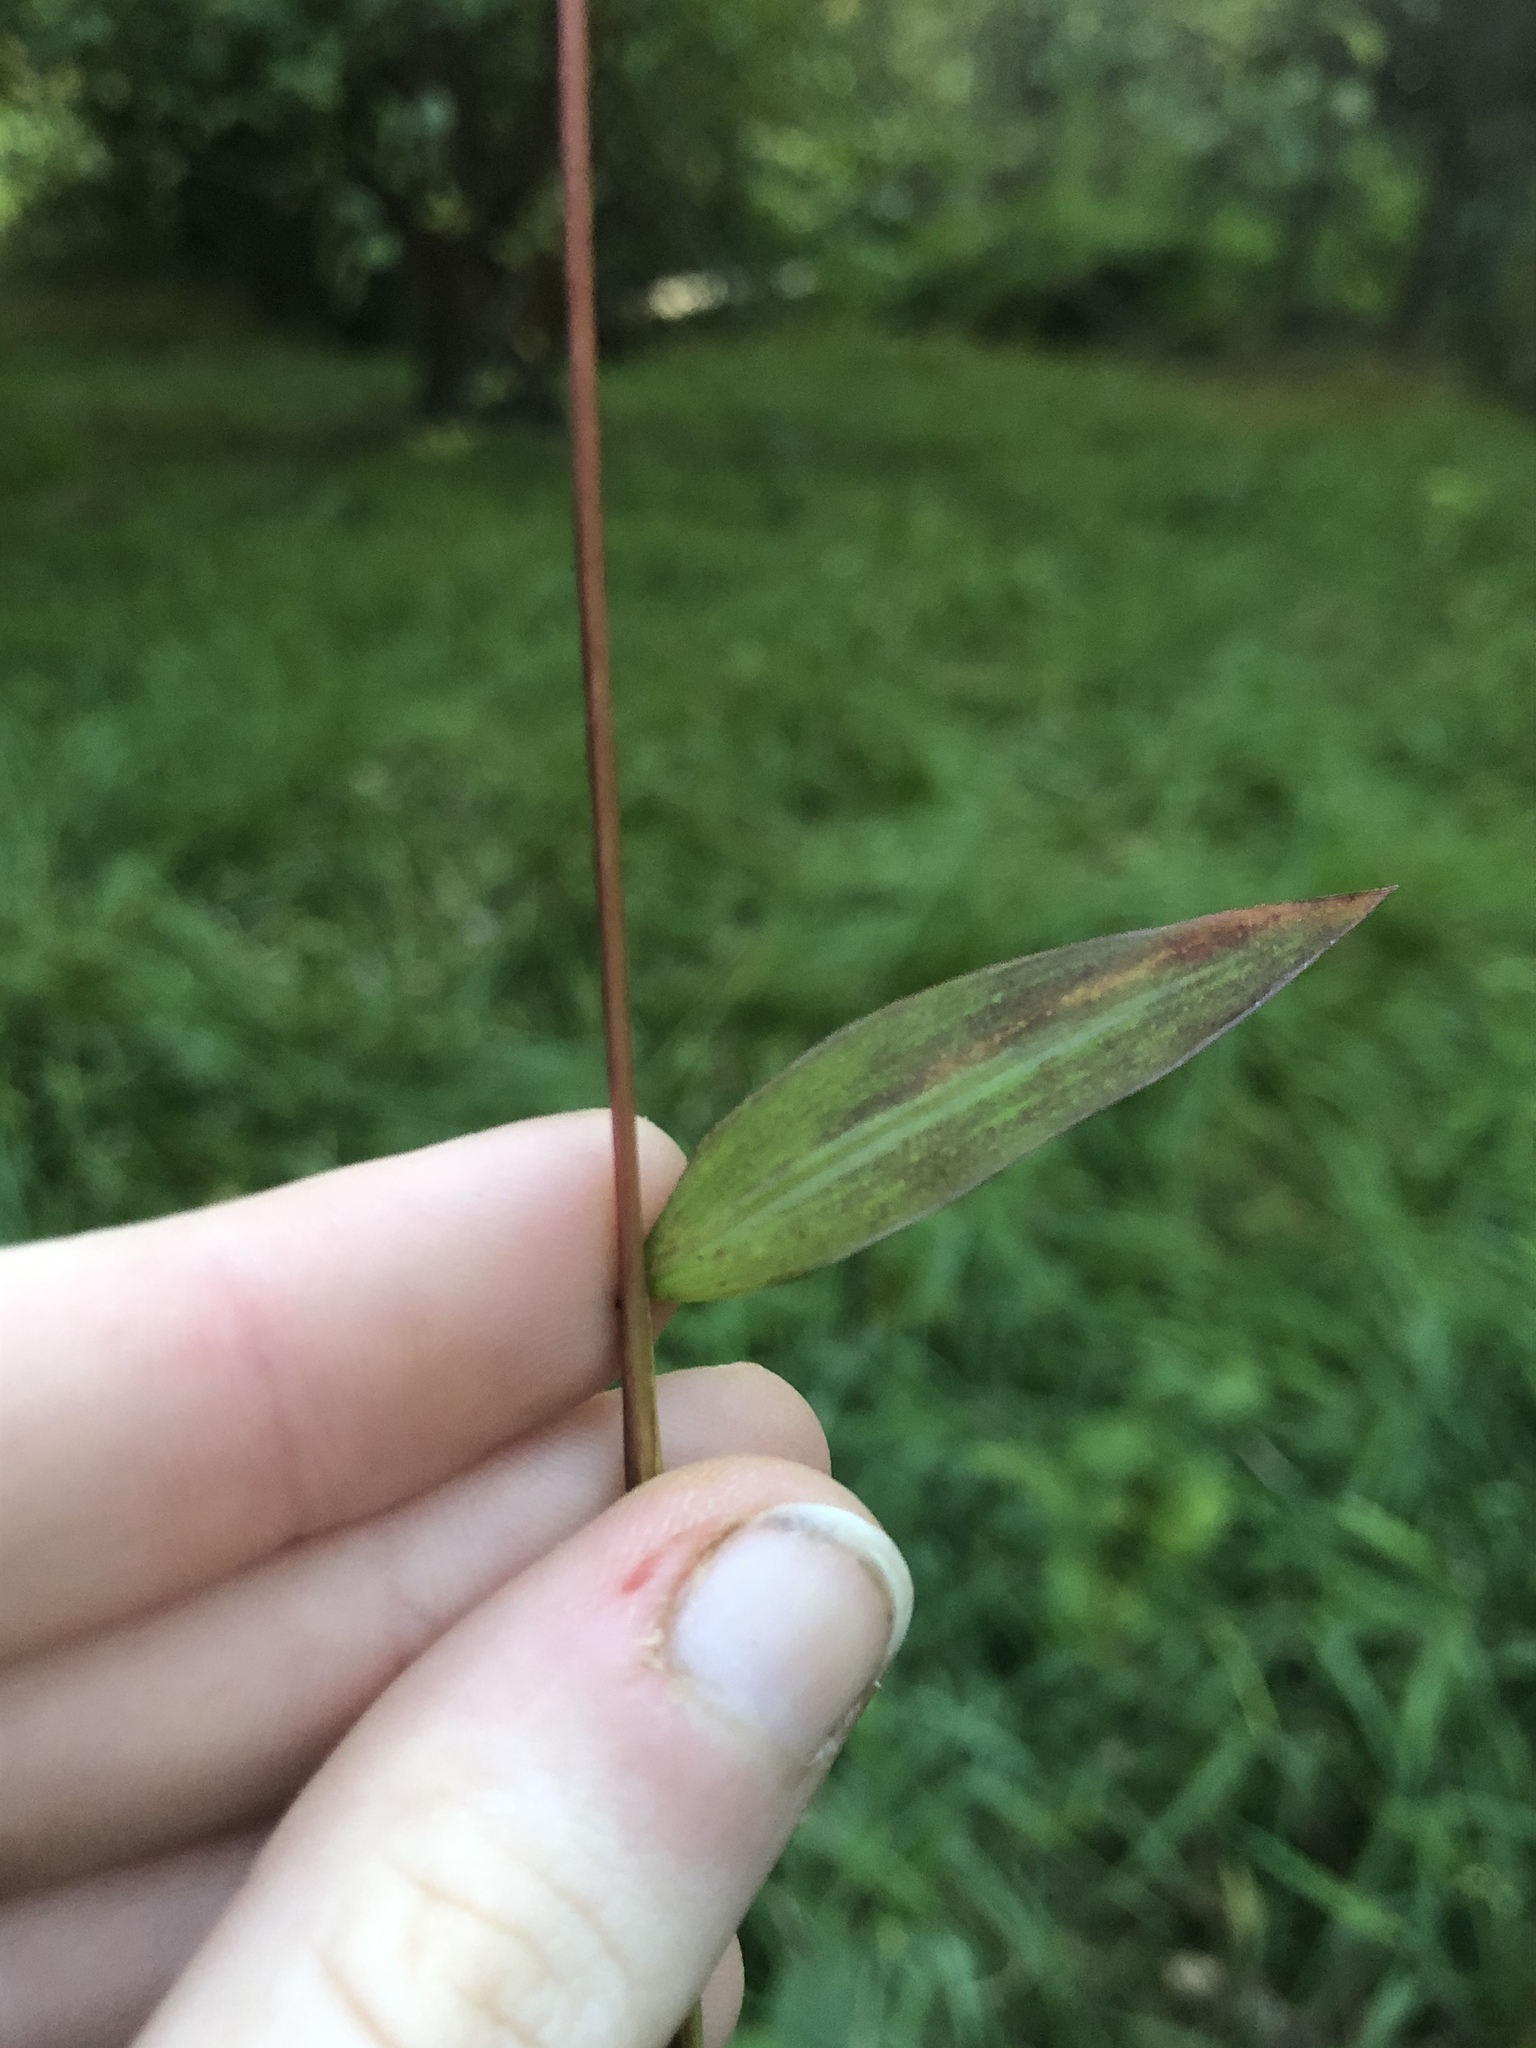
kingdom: Plantae
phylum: Tracheophyta
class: Liliopsida
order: Poales
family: Poaceae
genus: Microstegium
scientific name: Microstegium vimineum
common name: Japanese stiltgrass
